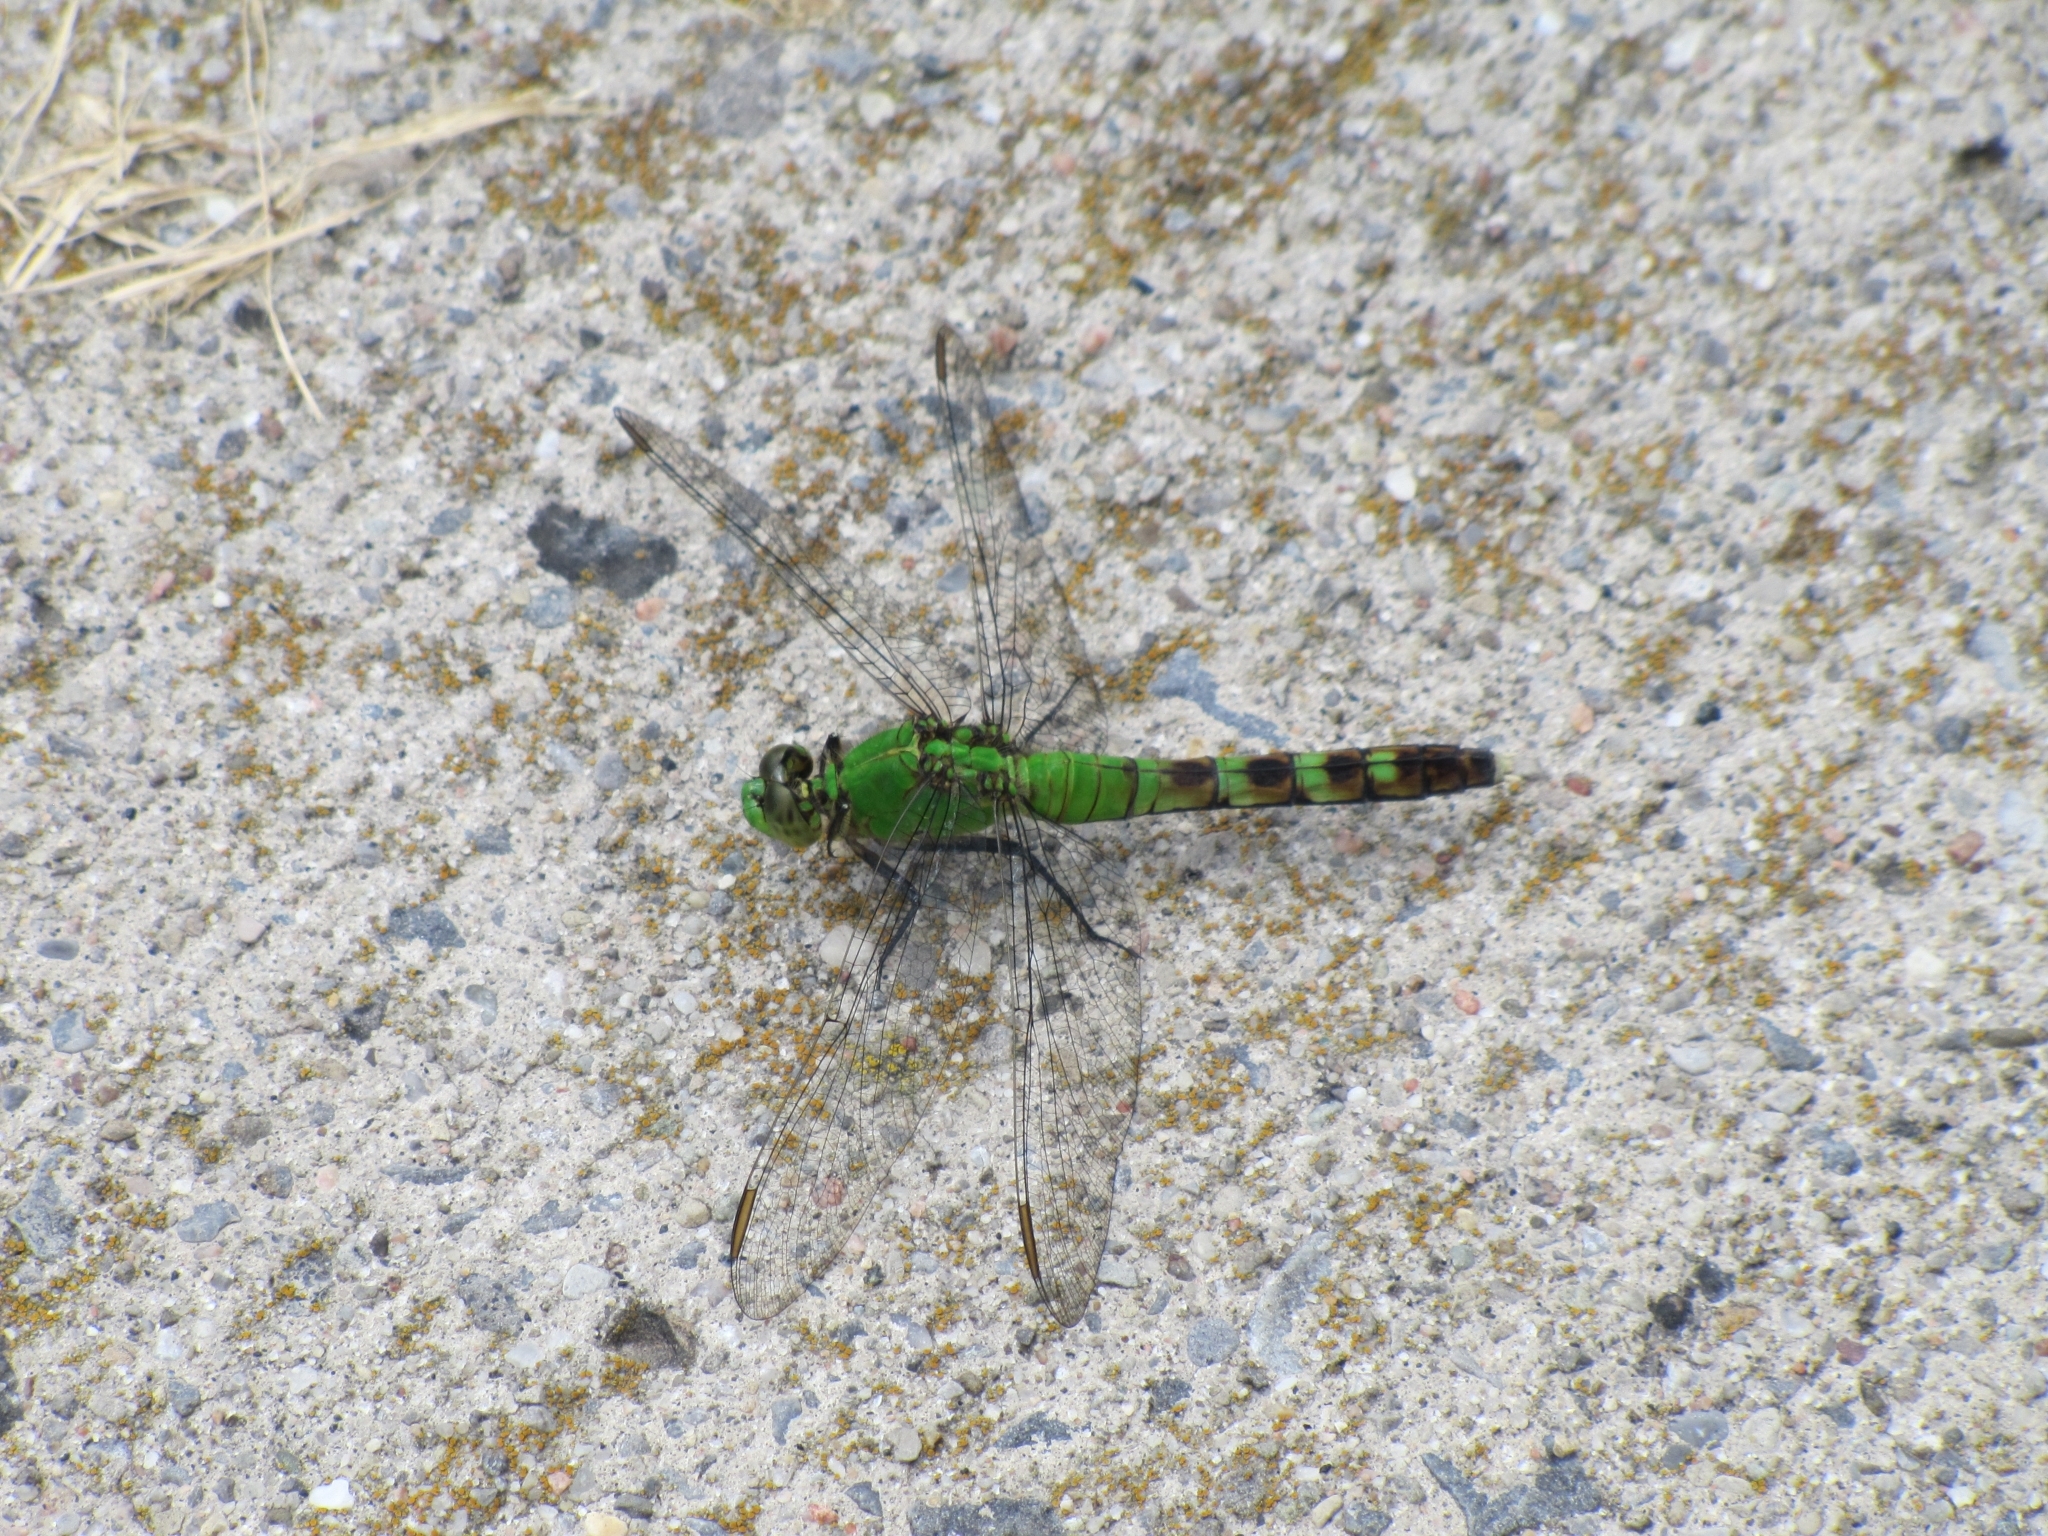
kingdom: Animalia
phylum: Arthropoda
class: Insecta
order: Odonata
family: Libellulidae
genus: Erythemis
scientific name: Erythemis simplicicollis
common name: Eastern pondhawk
